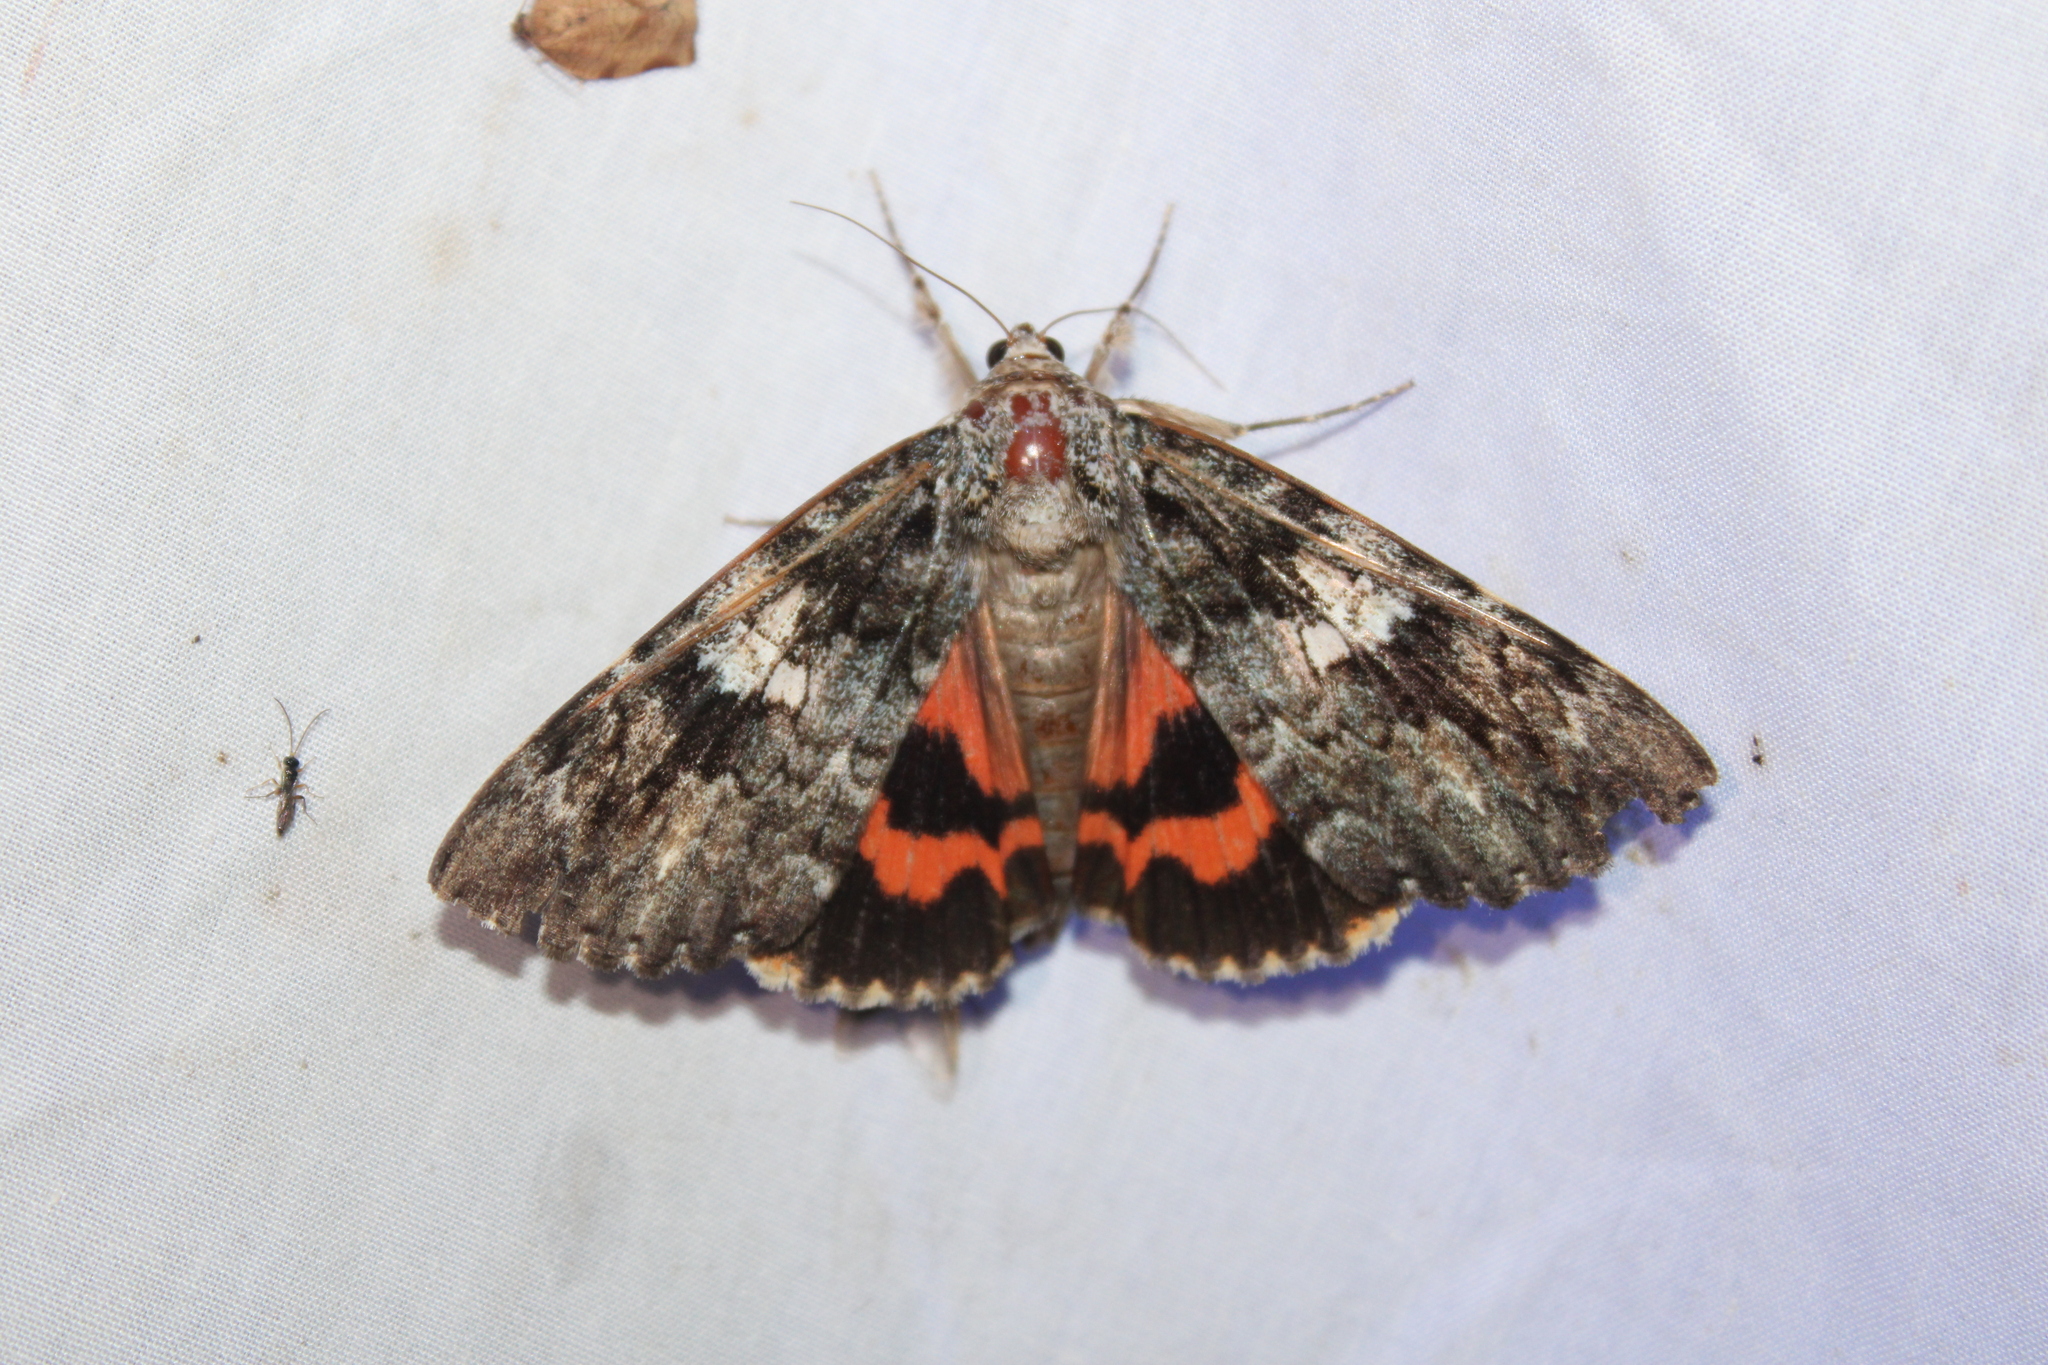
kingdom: Animalia
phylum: Arthropoda
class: Insecta
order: Lepidoptera
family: Erebidae
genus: Catocala
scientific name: Catocala ilia
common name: Ilia underwing
